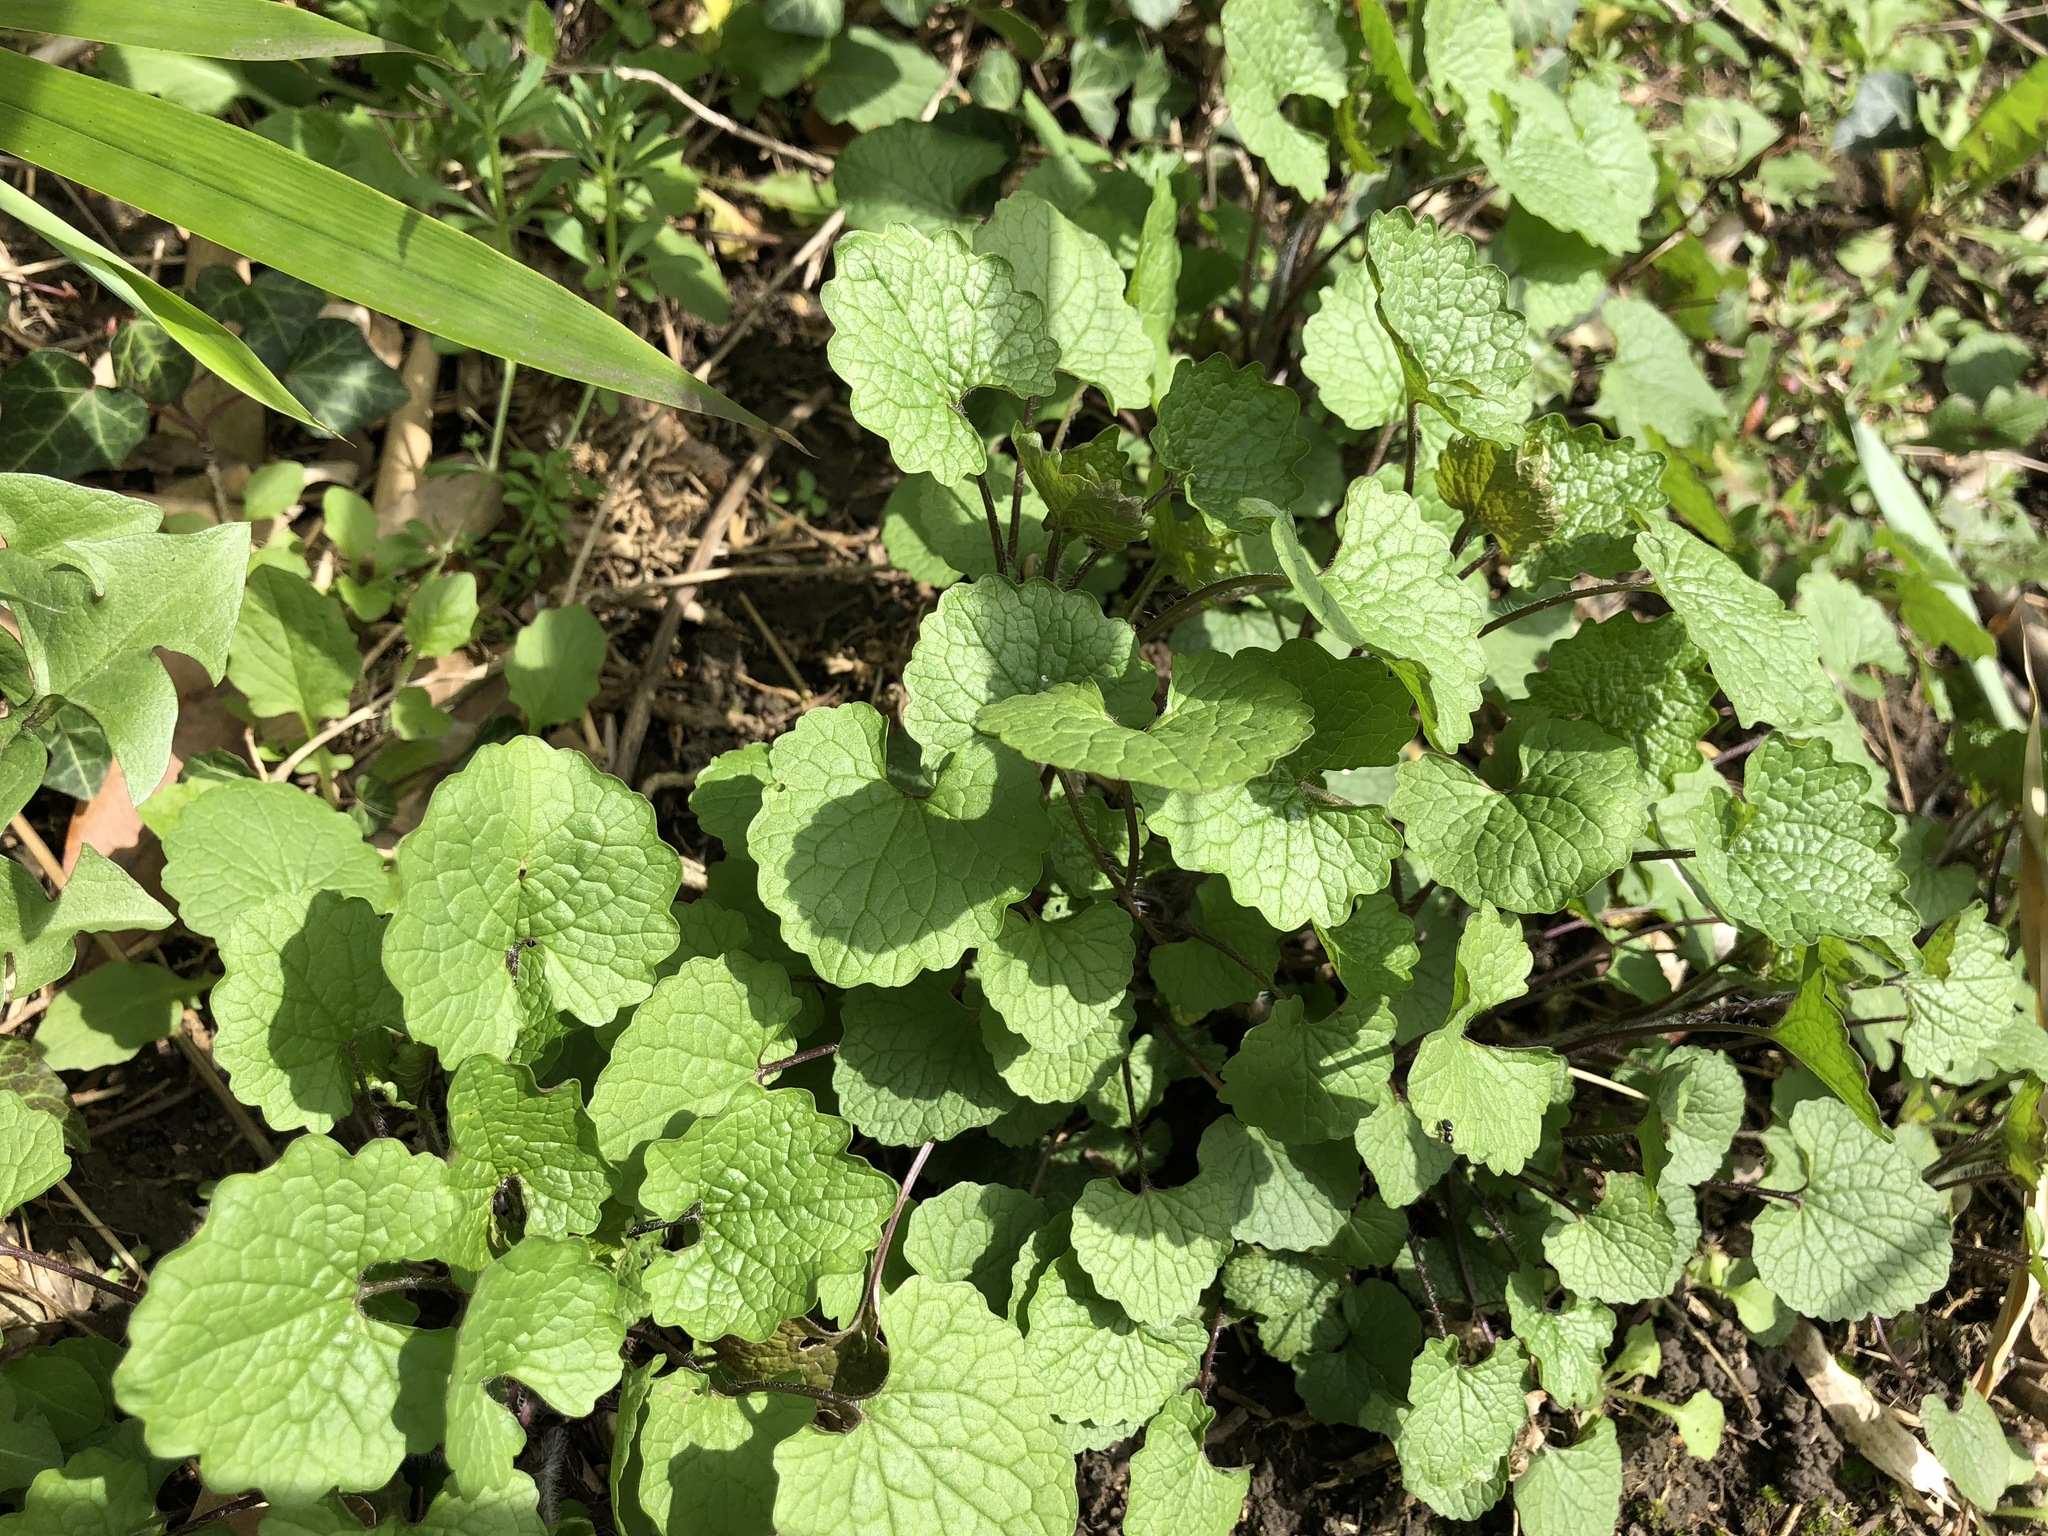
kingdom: Plantae
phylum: Tracheophyta
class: Magnoliopsida
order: Brassicales
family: Brassicaceae
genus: Alliaria
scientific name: Alliaria petiolata
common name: Garlic mustard
